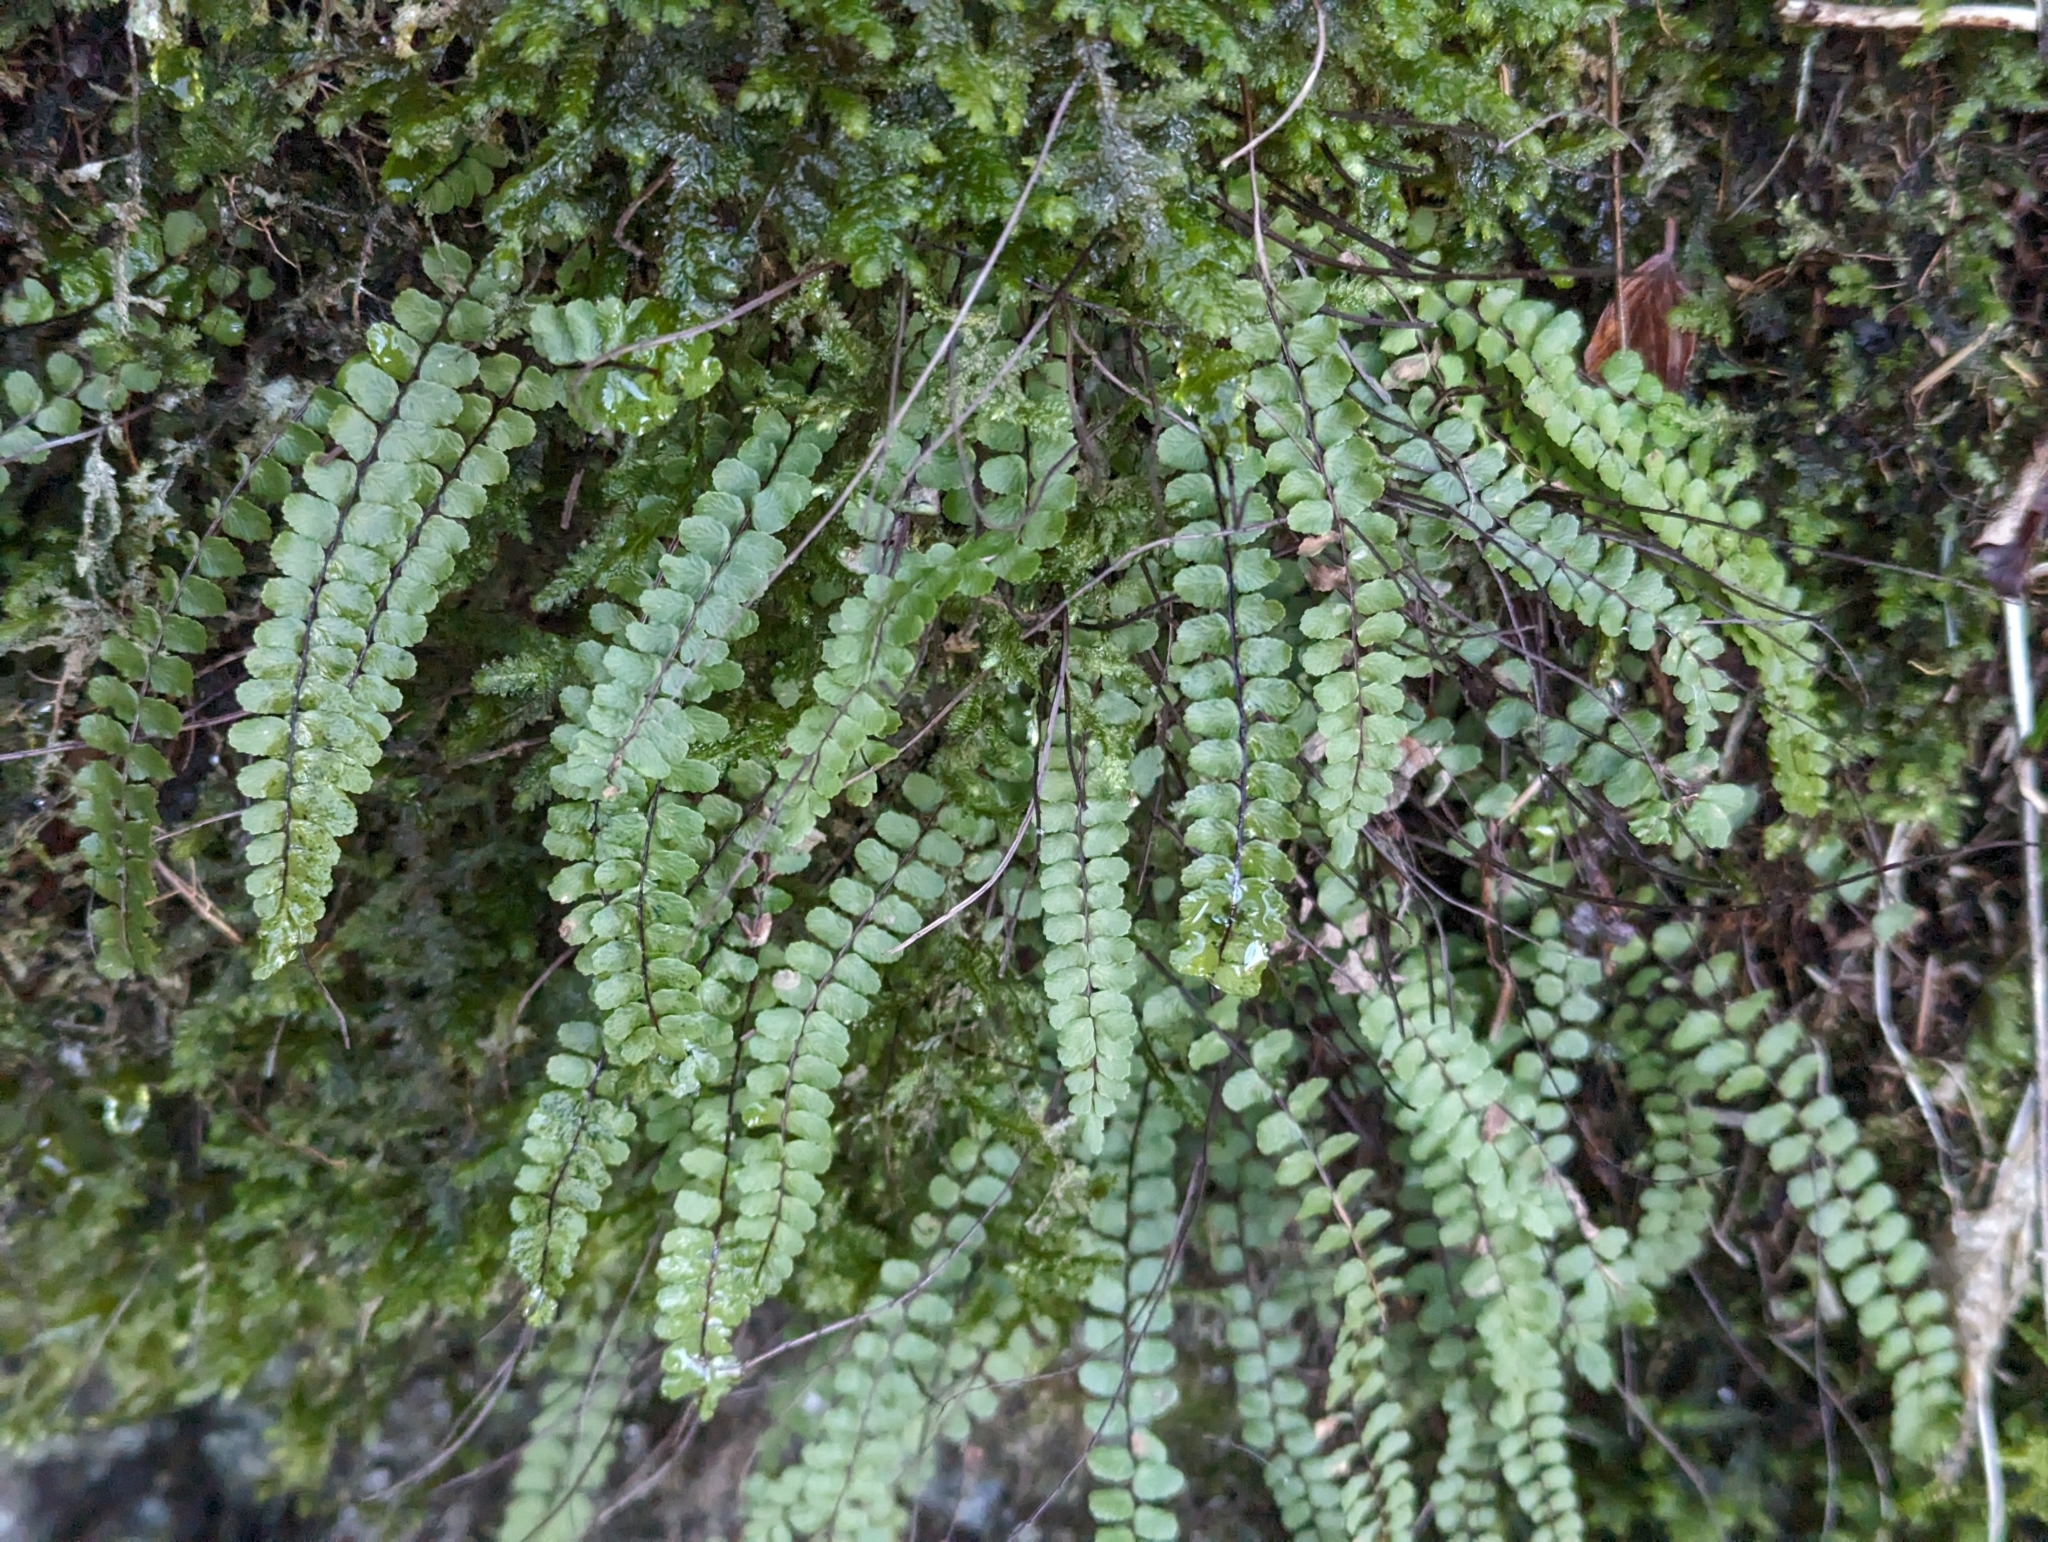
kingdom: Plantae
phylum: Tracheophyta
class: Polypodiopsida
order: Polypodiales
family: Aspleniaceae
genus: Asplenium
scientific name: Asplenium trichomanes
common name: Maidenhair spleenwort
